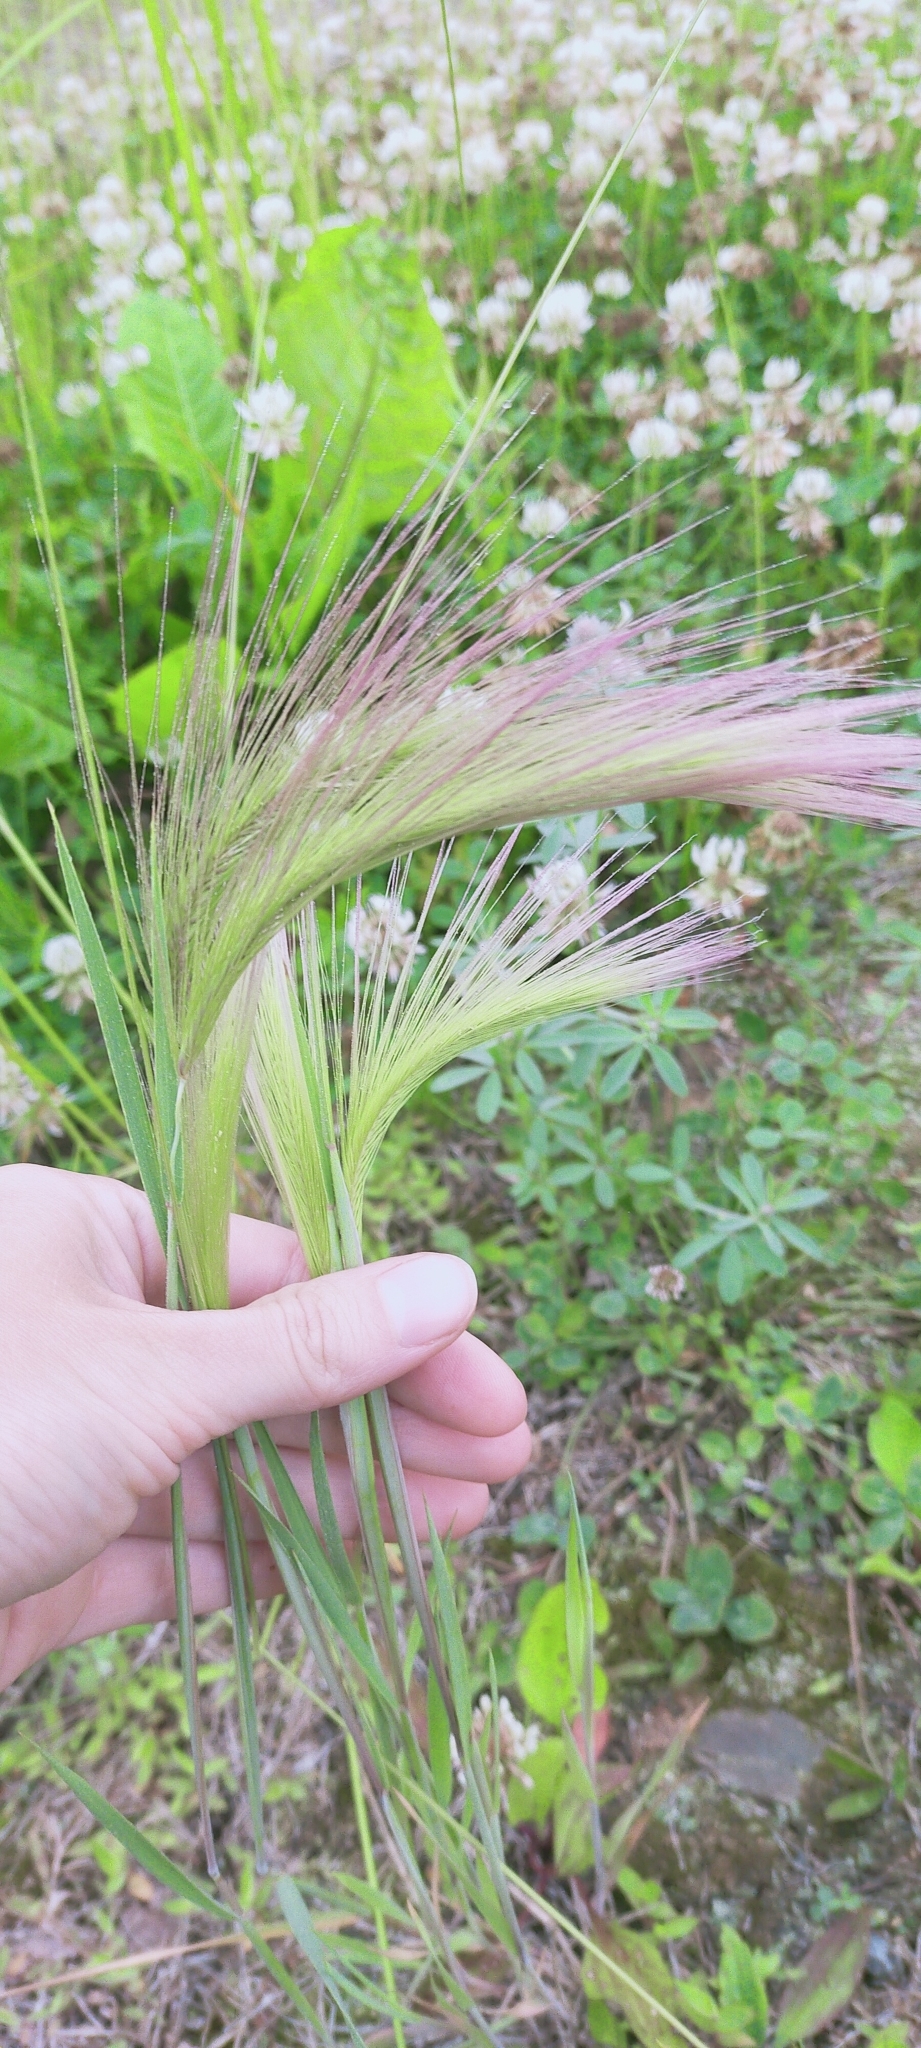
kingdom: Plantae
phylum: Tracheophyta
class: Liliopsida
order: Poales
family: Poaceae
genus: Hordeum
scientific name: Hordeum jubatum
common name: Foxtail barley
